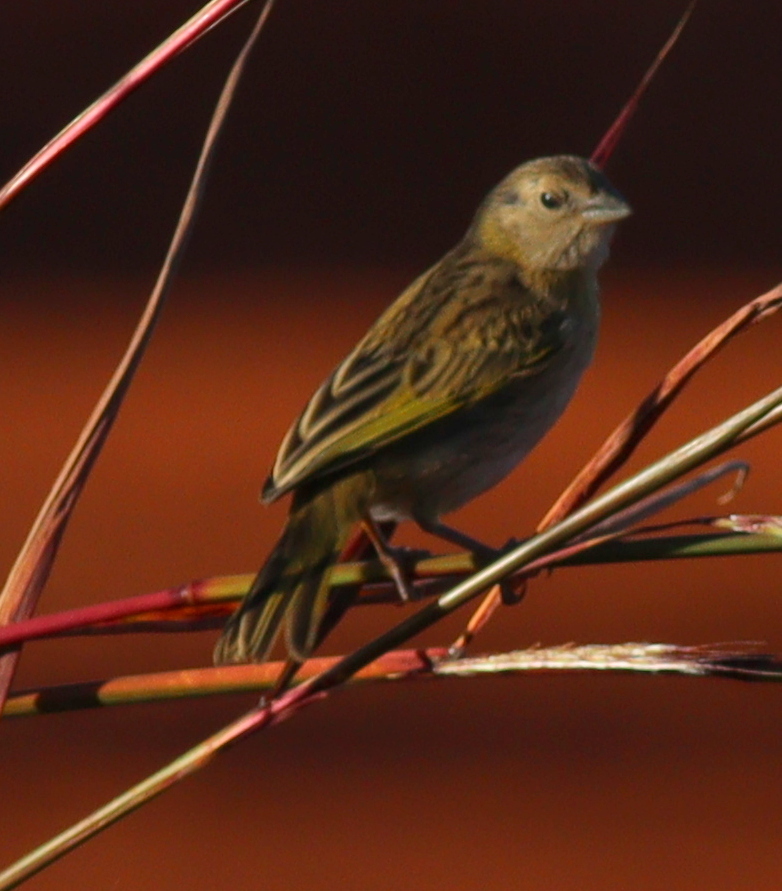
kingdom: Animalia
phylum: Chordata
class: Aves
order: Passeriformes
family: Thraupidae
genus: Sicalis
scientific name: Sicalis flaveola
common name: Saffron finch
